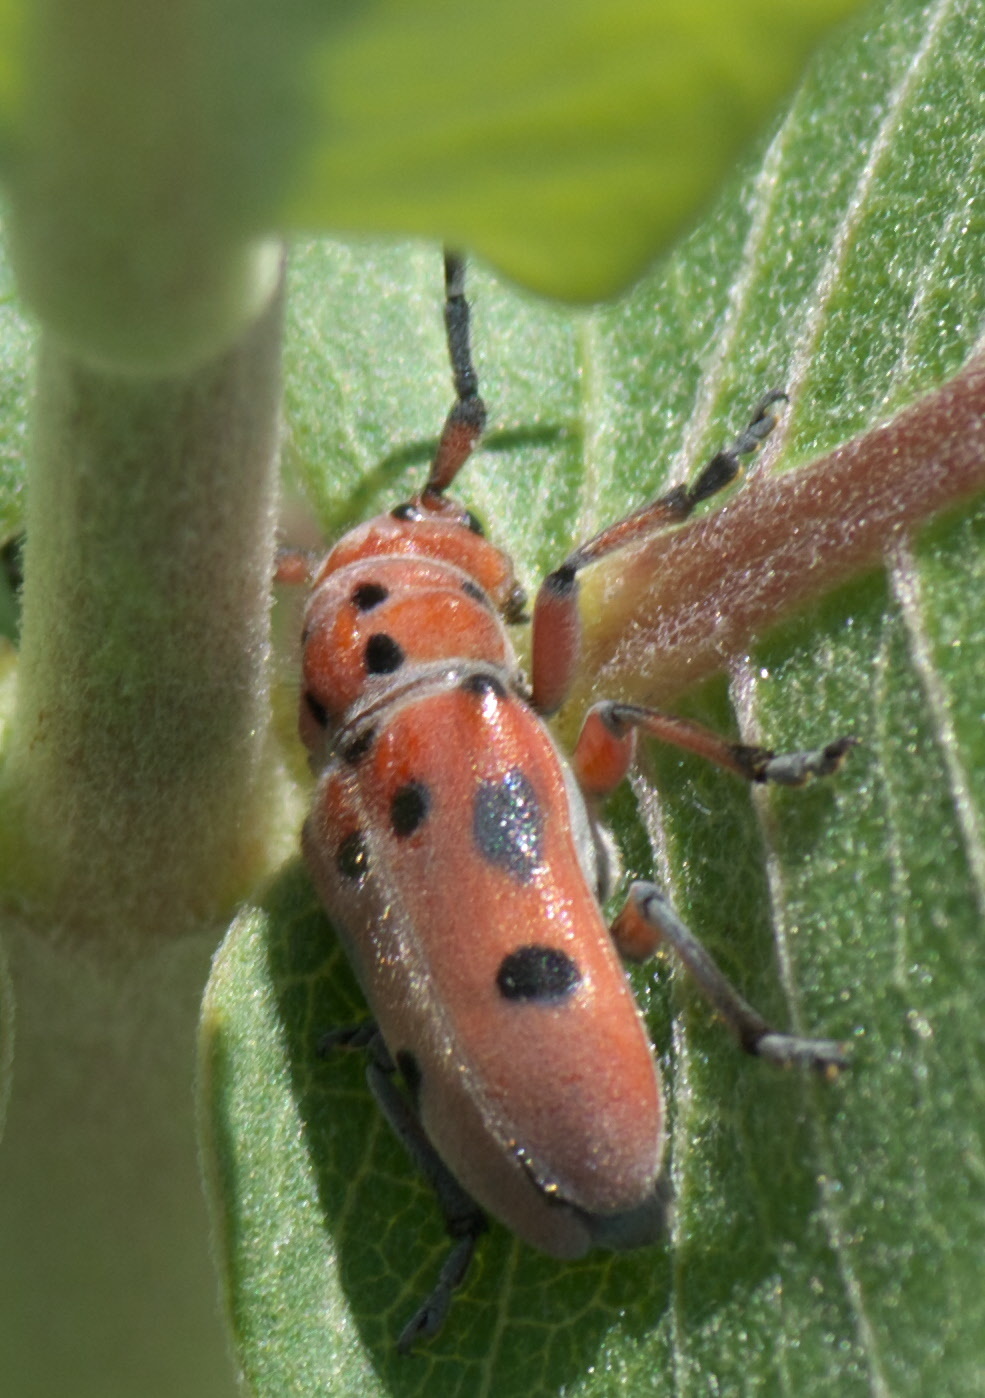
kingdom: Animalia
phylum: Arthropoda
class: Insecta
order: Coleoptera
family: Cerambycidae
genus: Tetraopes
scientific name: Tetraopes femoratus
